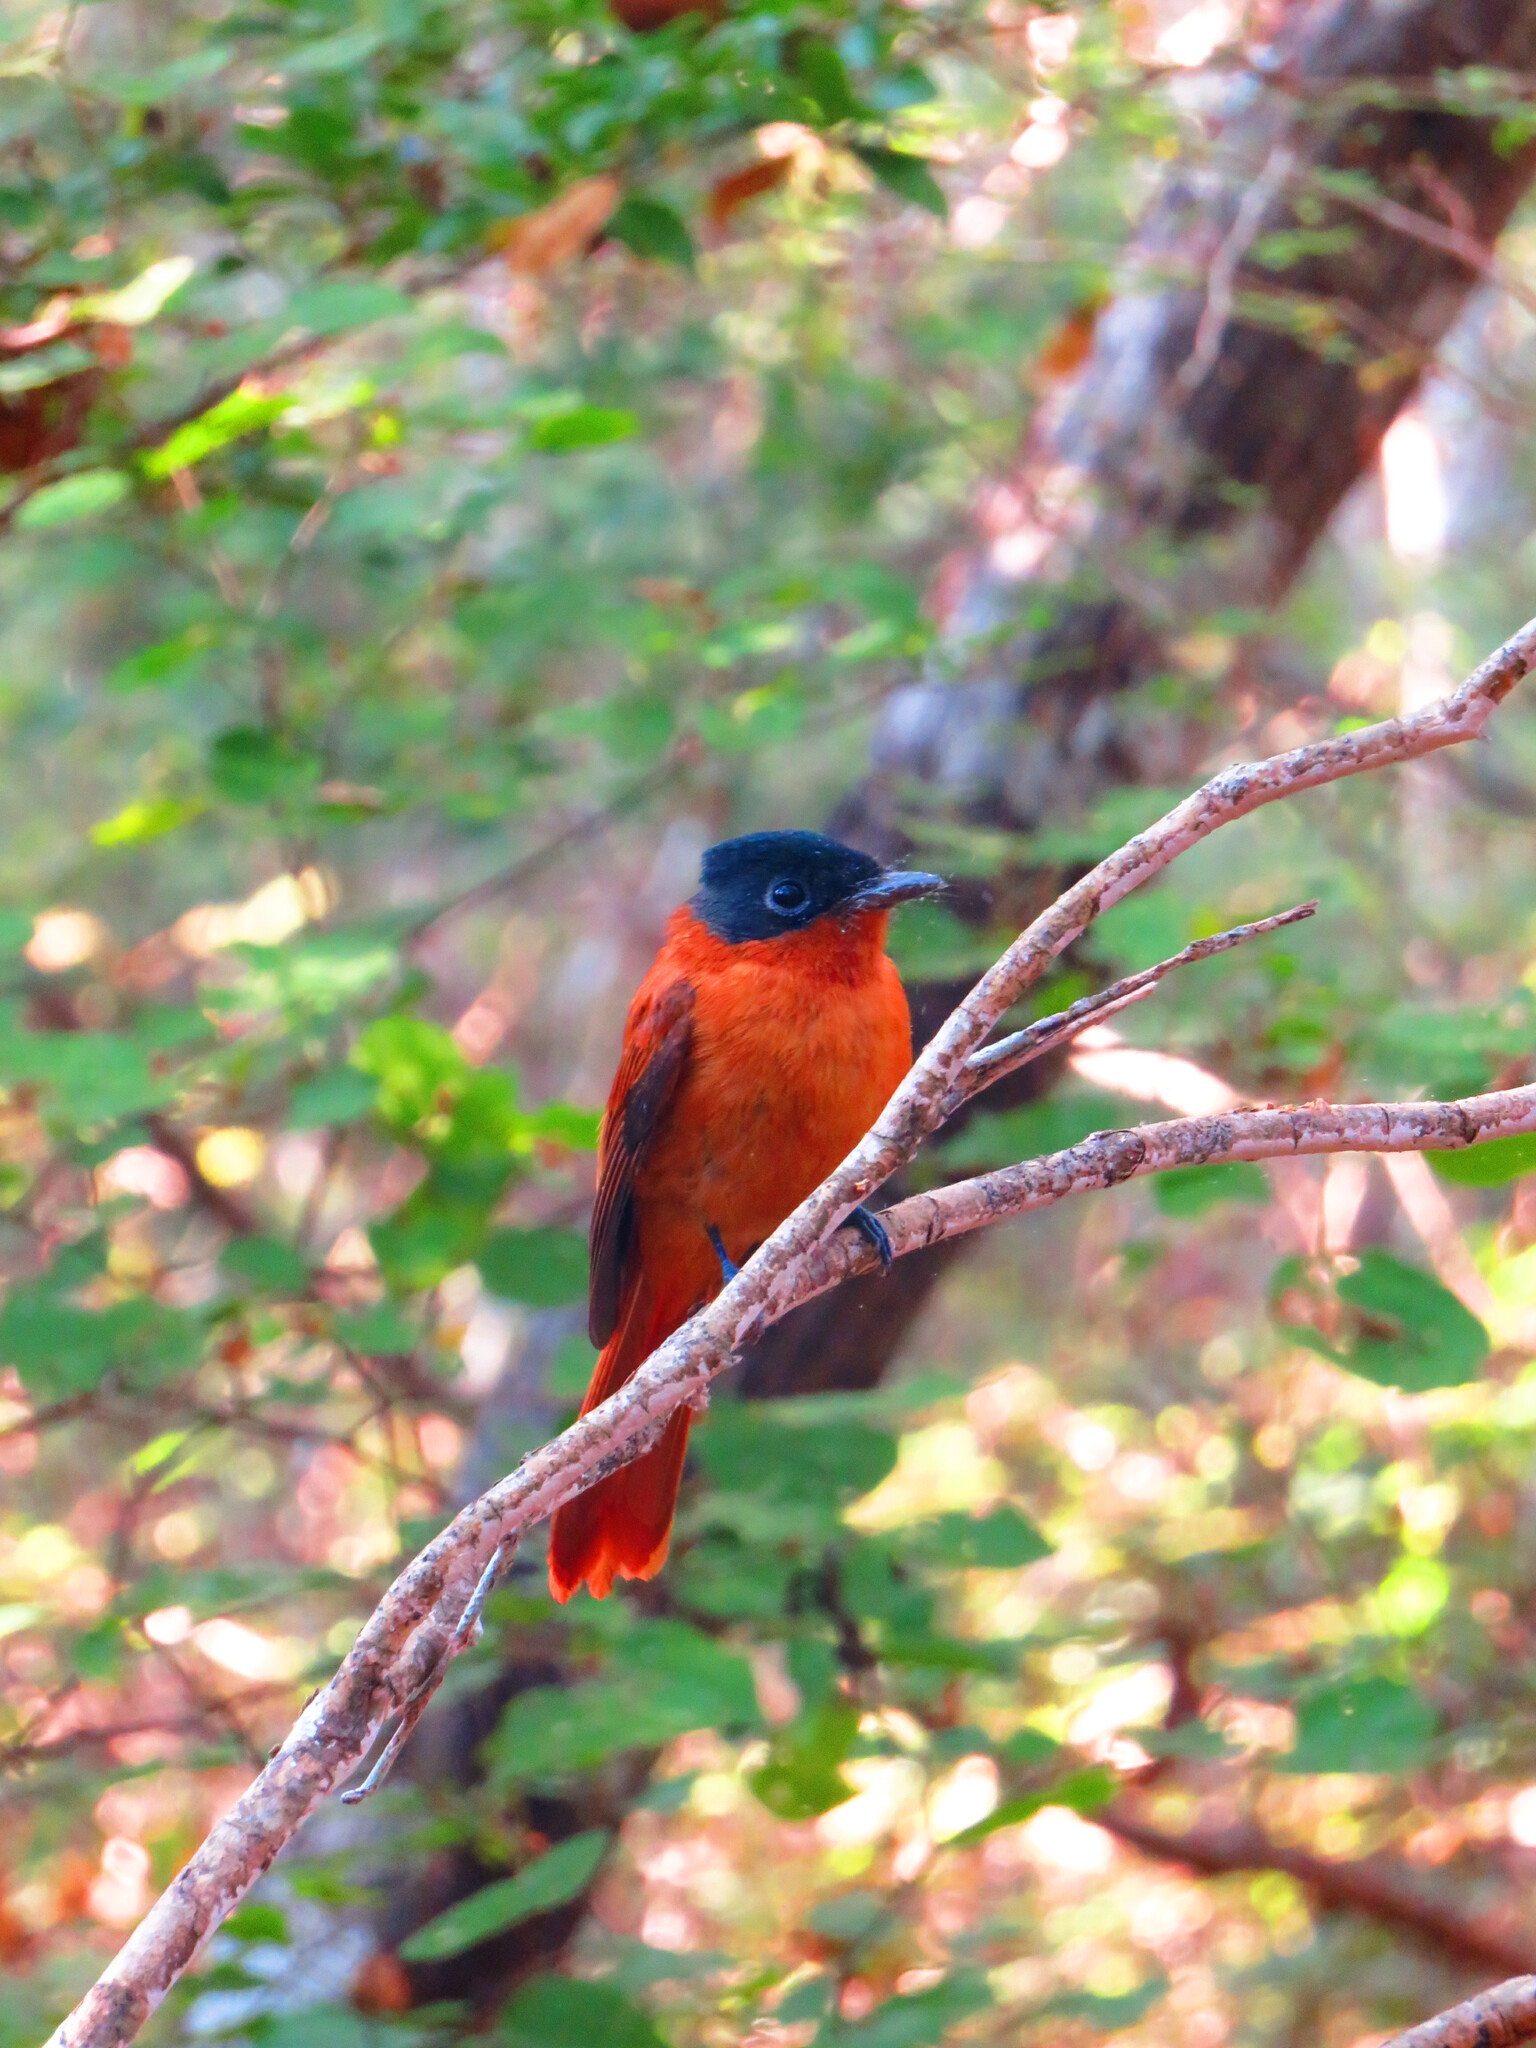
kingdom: Animalia
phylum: Chordata
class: Aves
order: Passeriformes
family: Monarchidae
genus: Terpsiphone
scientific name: Terpsiphone mutata
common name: Malagasy paradise flycatcher
